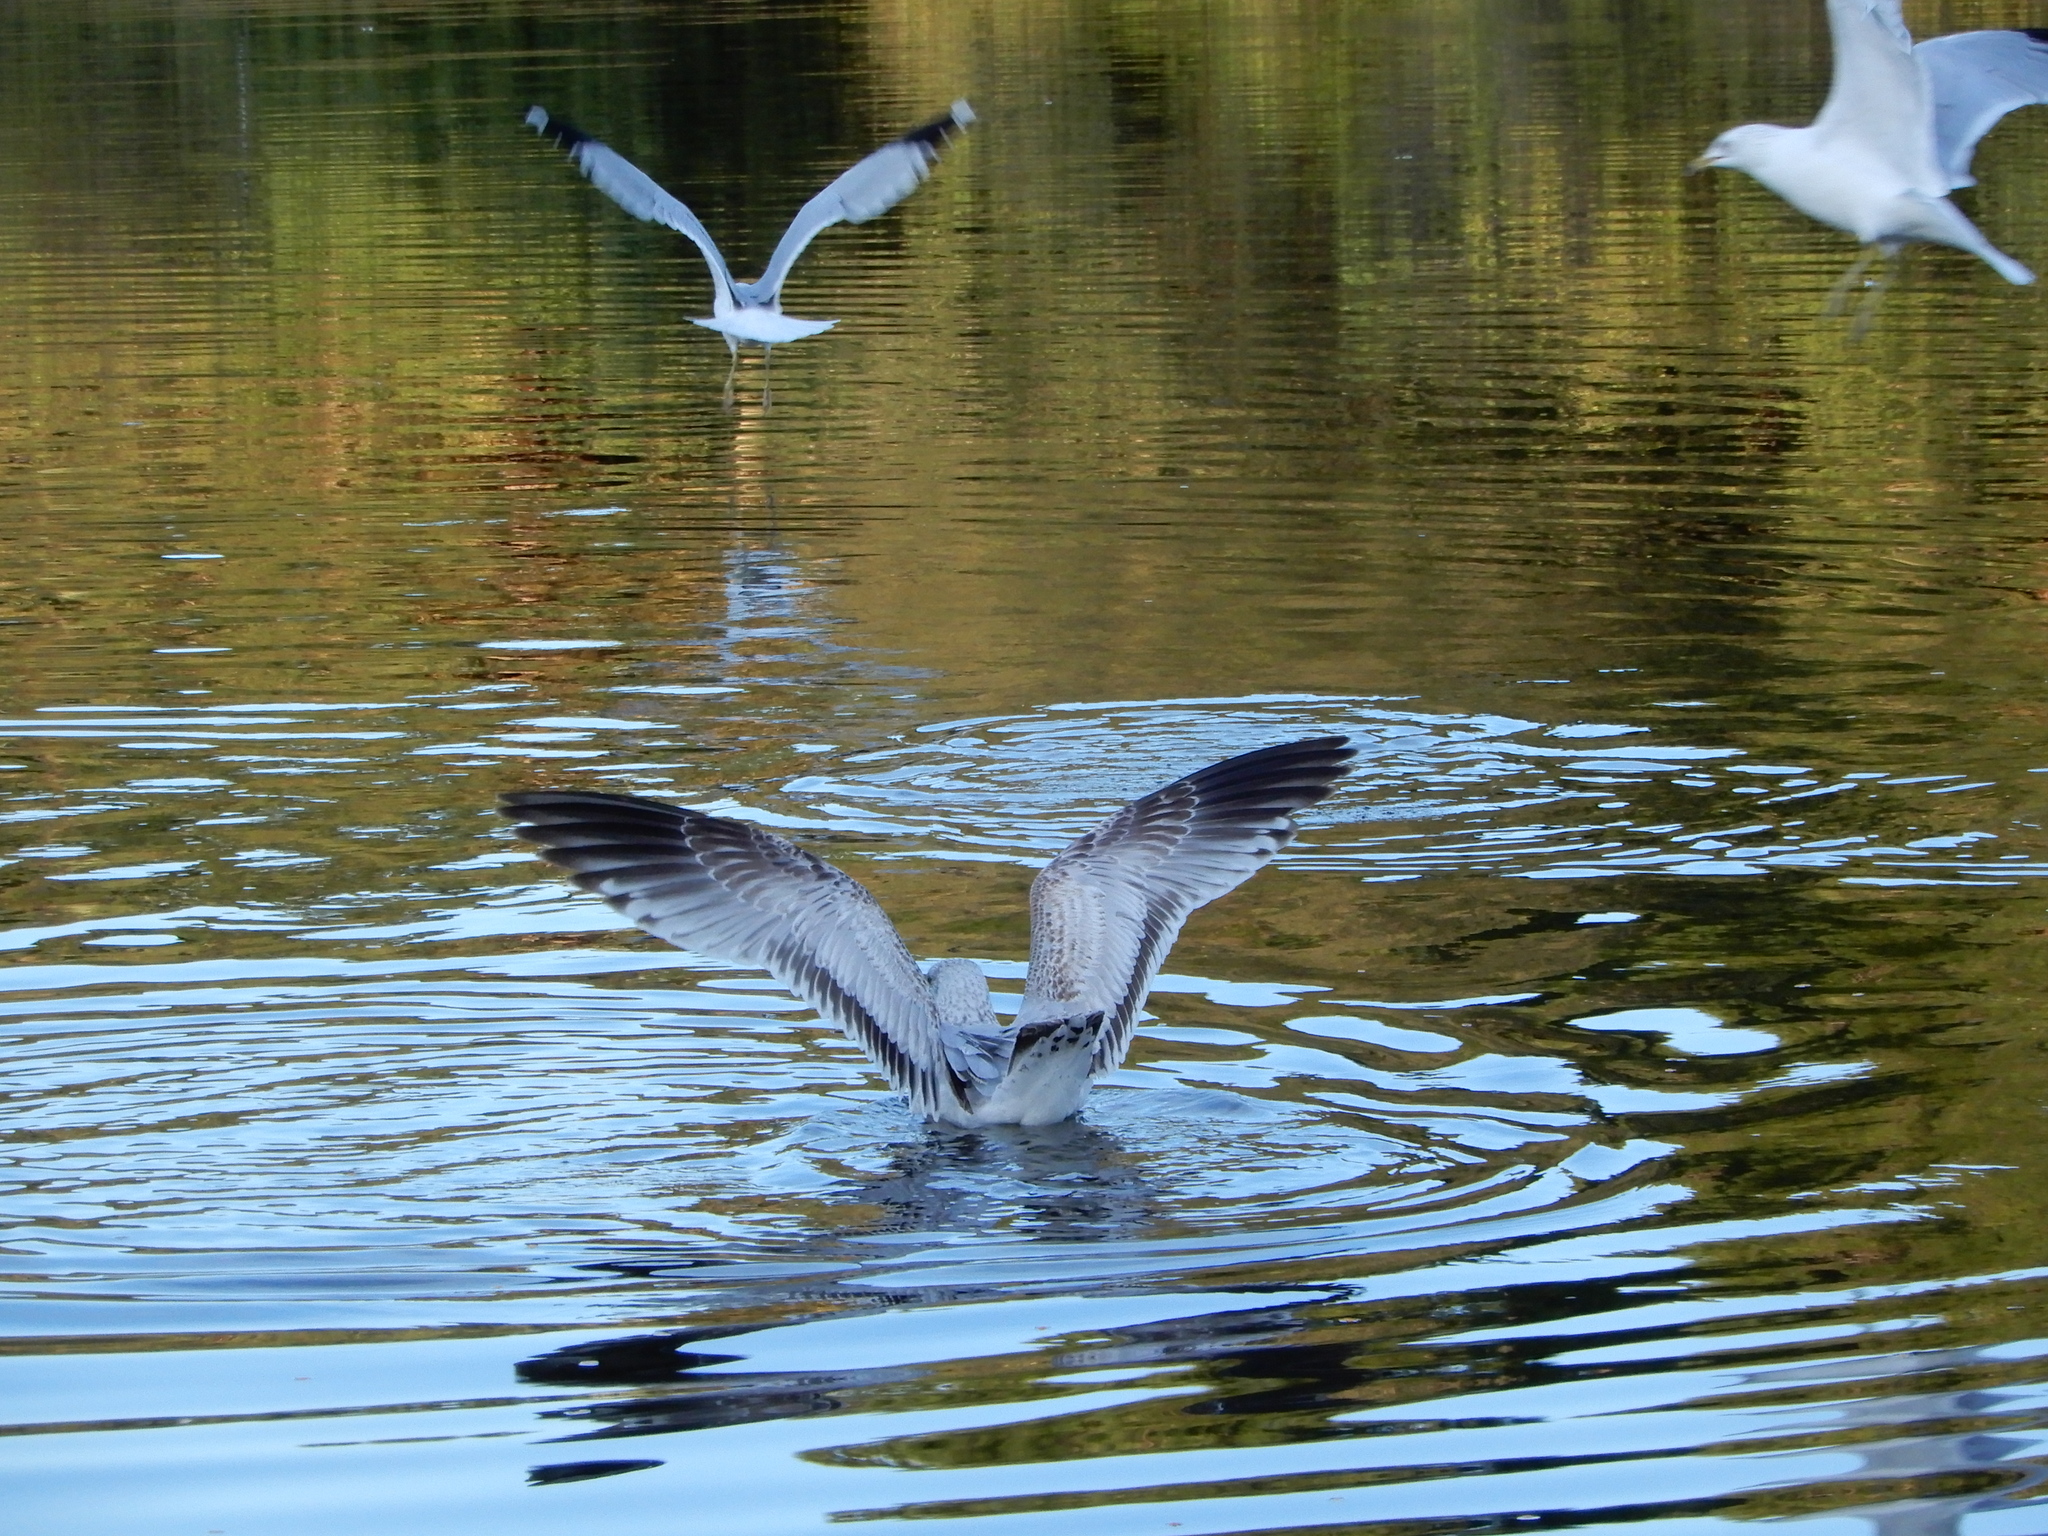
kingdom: Animalia
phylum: Chordata
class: Aves
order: Charadriiformes
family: Laridae
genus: Larus
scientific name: Larus delawarensis
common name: Ring-billed gull
